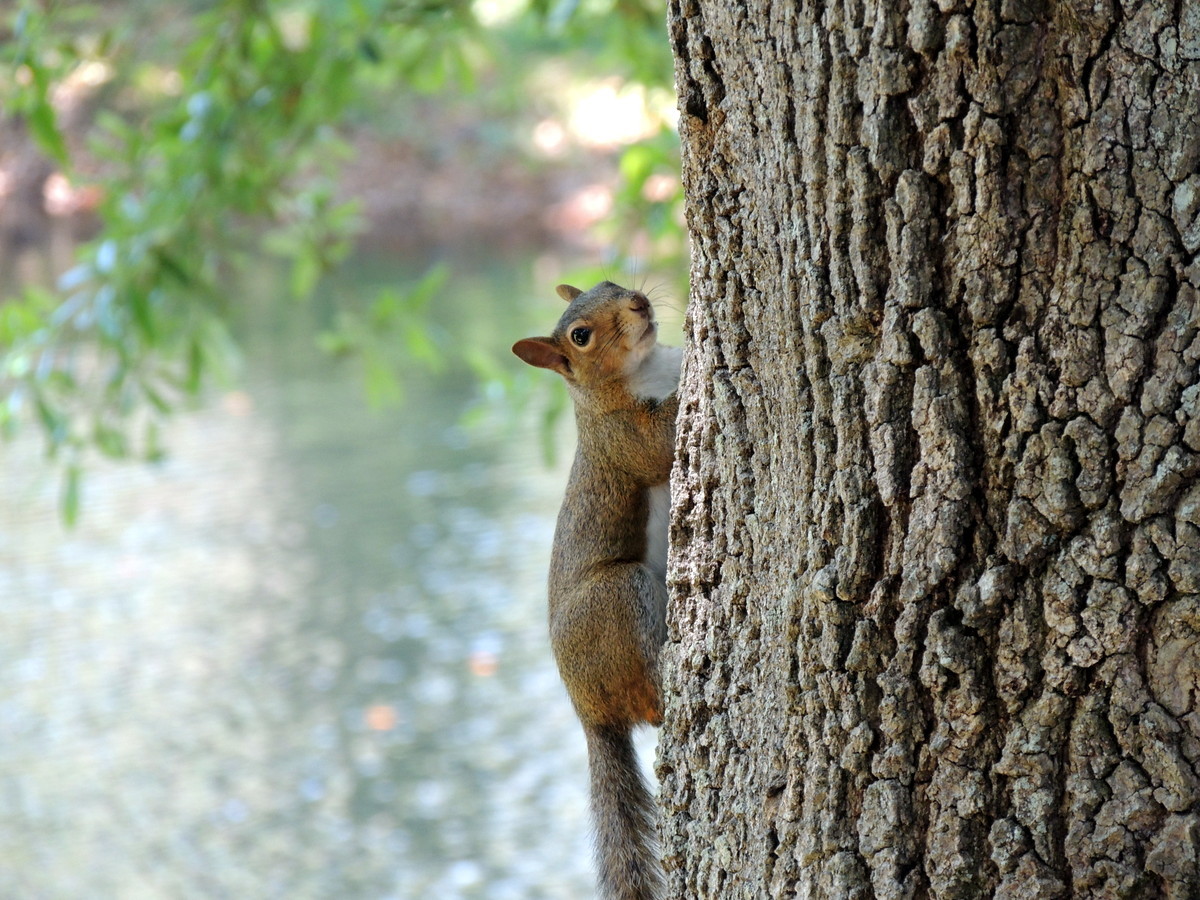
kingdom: Animalia
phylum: Chordata
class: Mammalia
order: Rodentia
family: Sciuridae
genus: Sciurus
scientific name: Sciurus carolinensis
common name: Eastern gray squirrel
